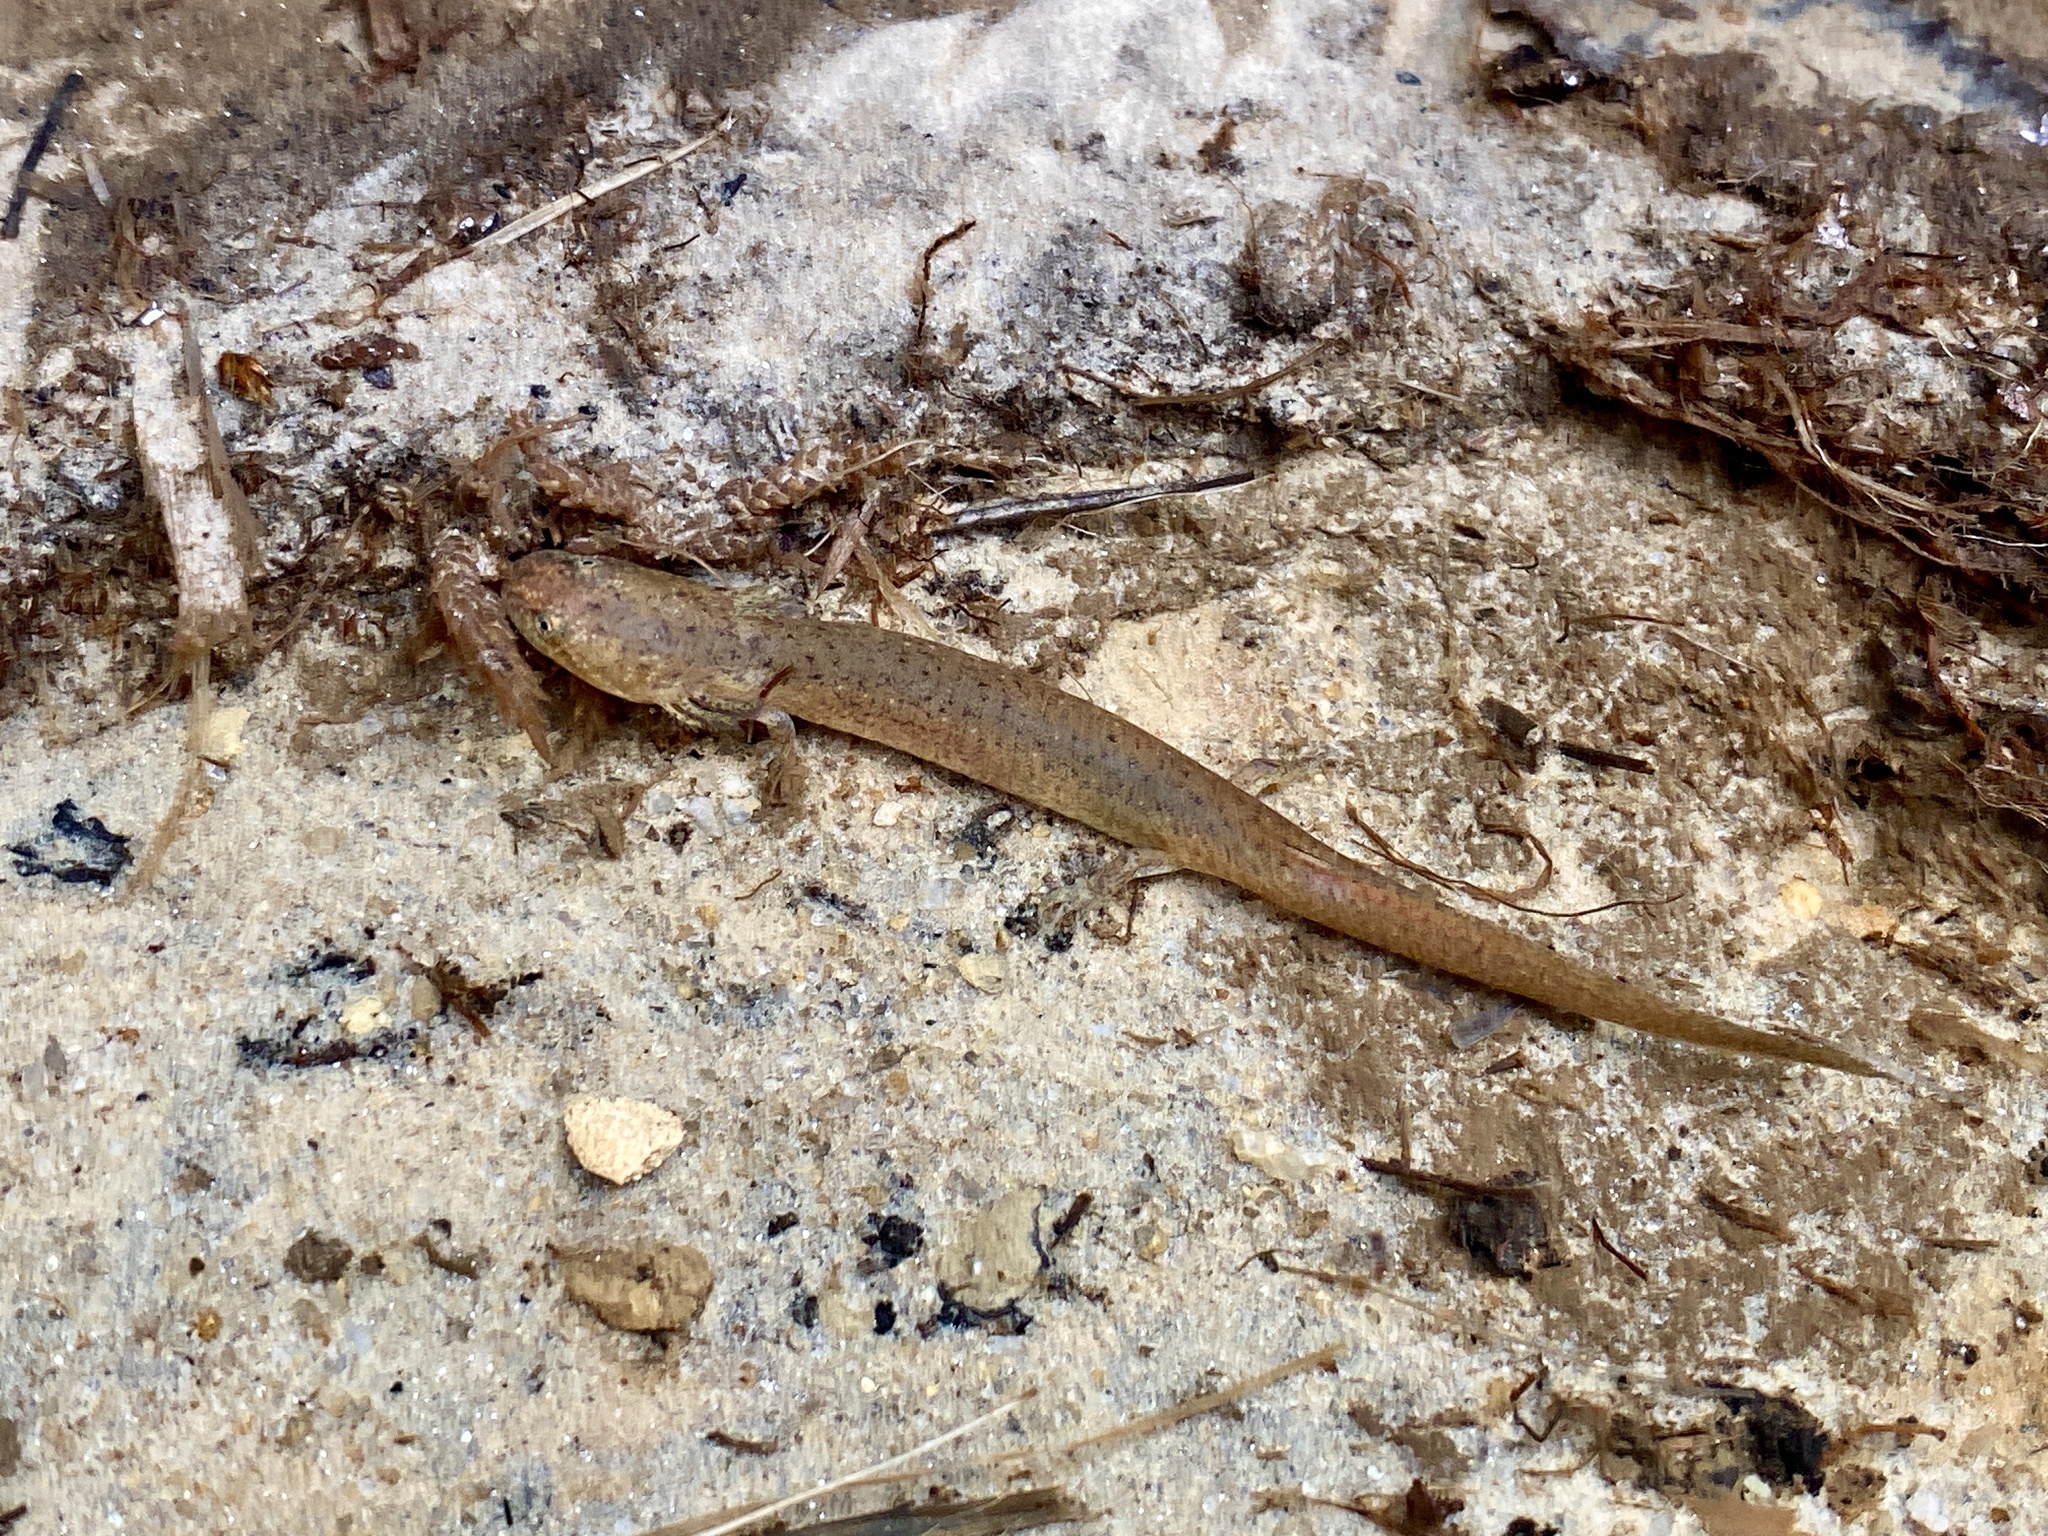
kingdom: Animalia
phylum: Chordata
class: Amphibia
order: Caudata
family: Plethodontidae
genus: Pseudotriton
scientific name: Pseudotriton ruber
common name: Red salamander
